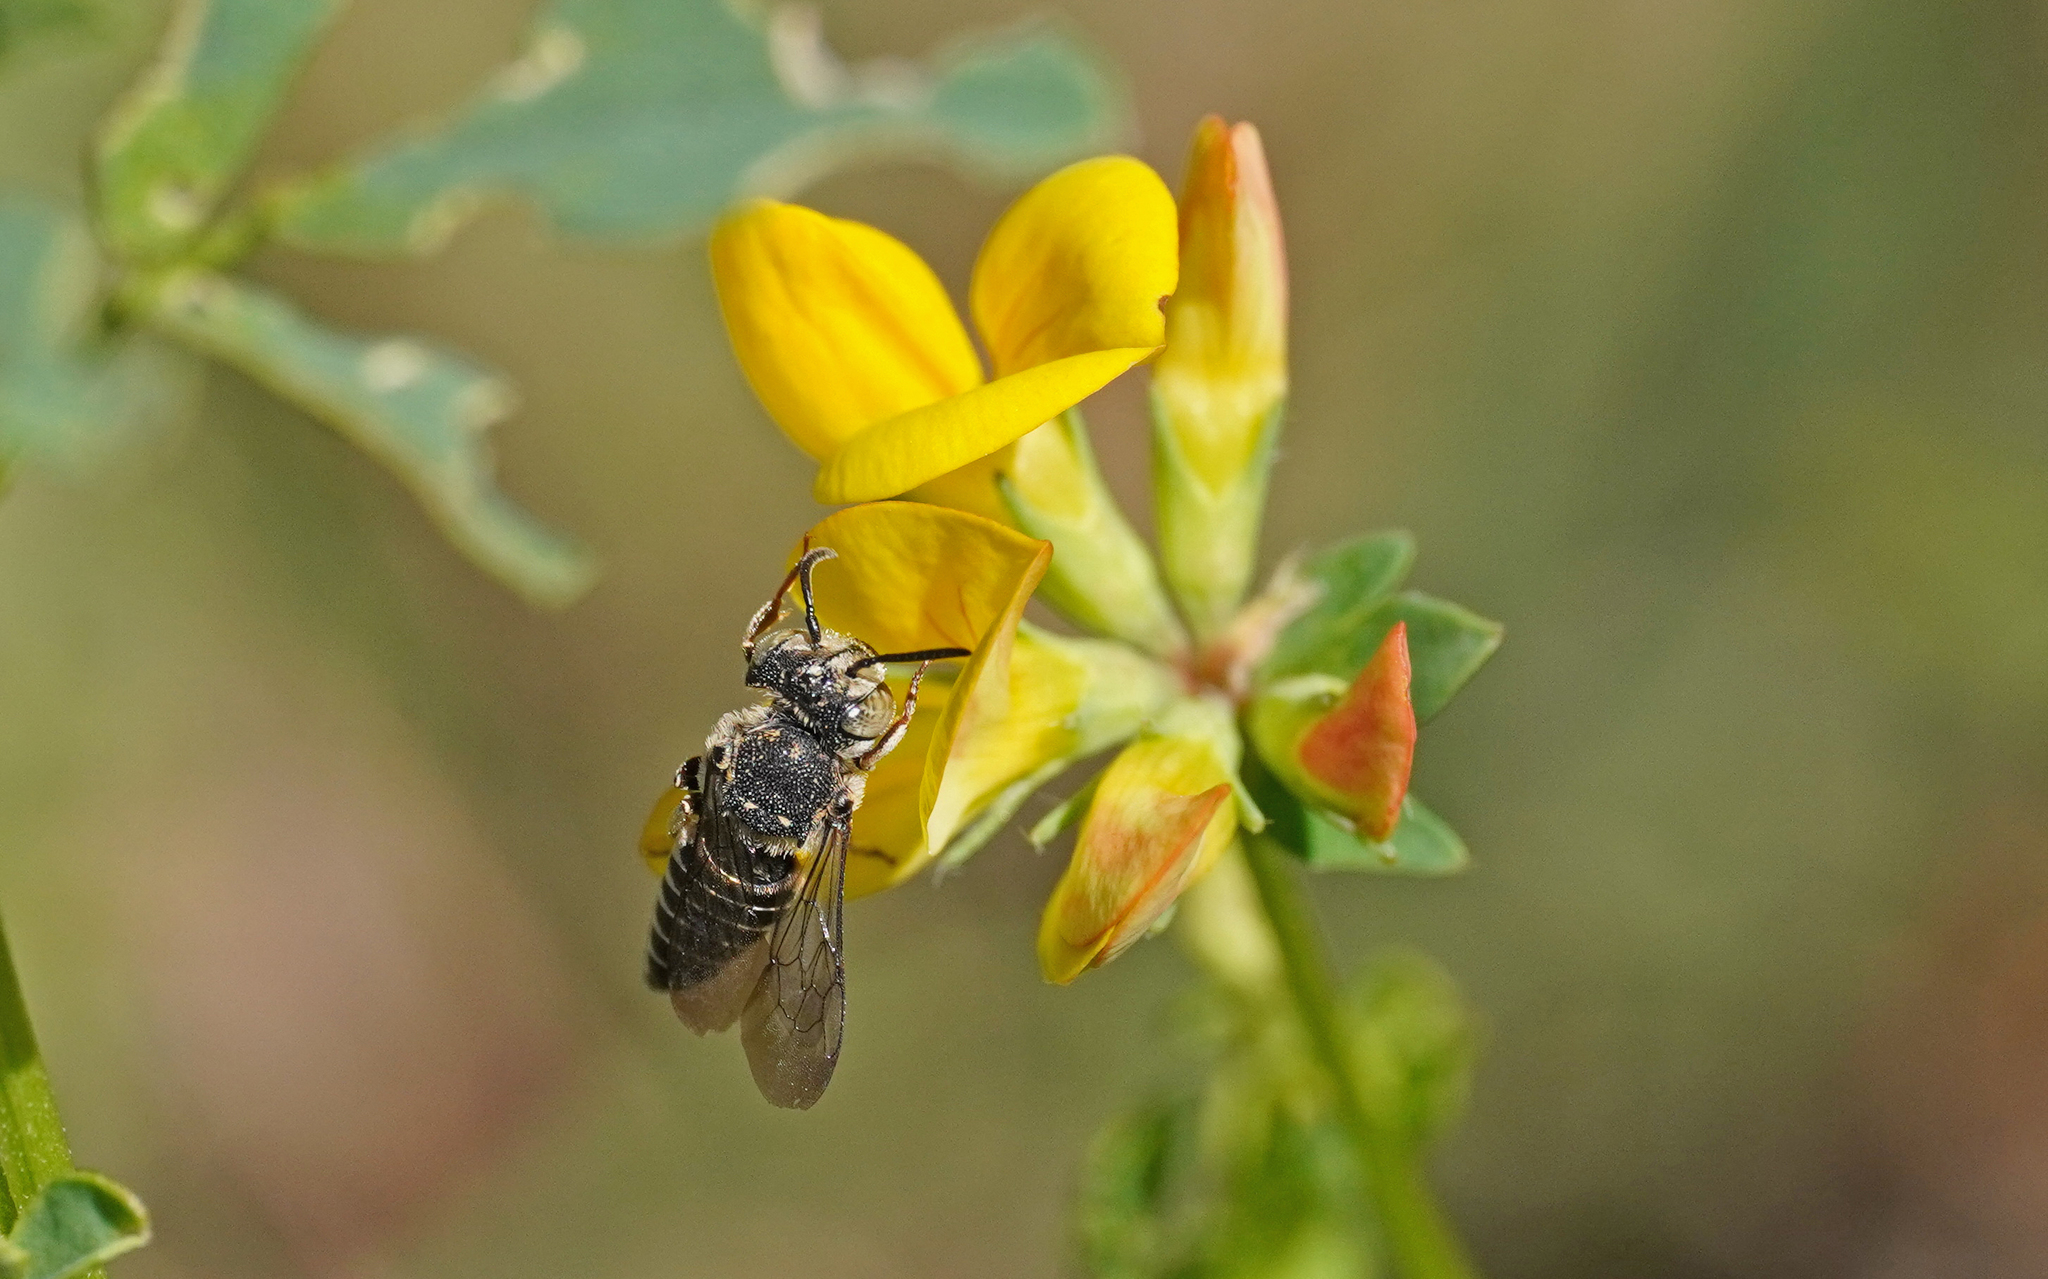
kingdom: Animalia
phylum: Arthropoda
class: Insecta
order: Hymenoptera
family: Megachilidae
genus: Coelioxys
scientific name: Coelioxys afra
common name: Short sharp-tail bee
